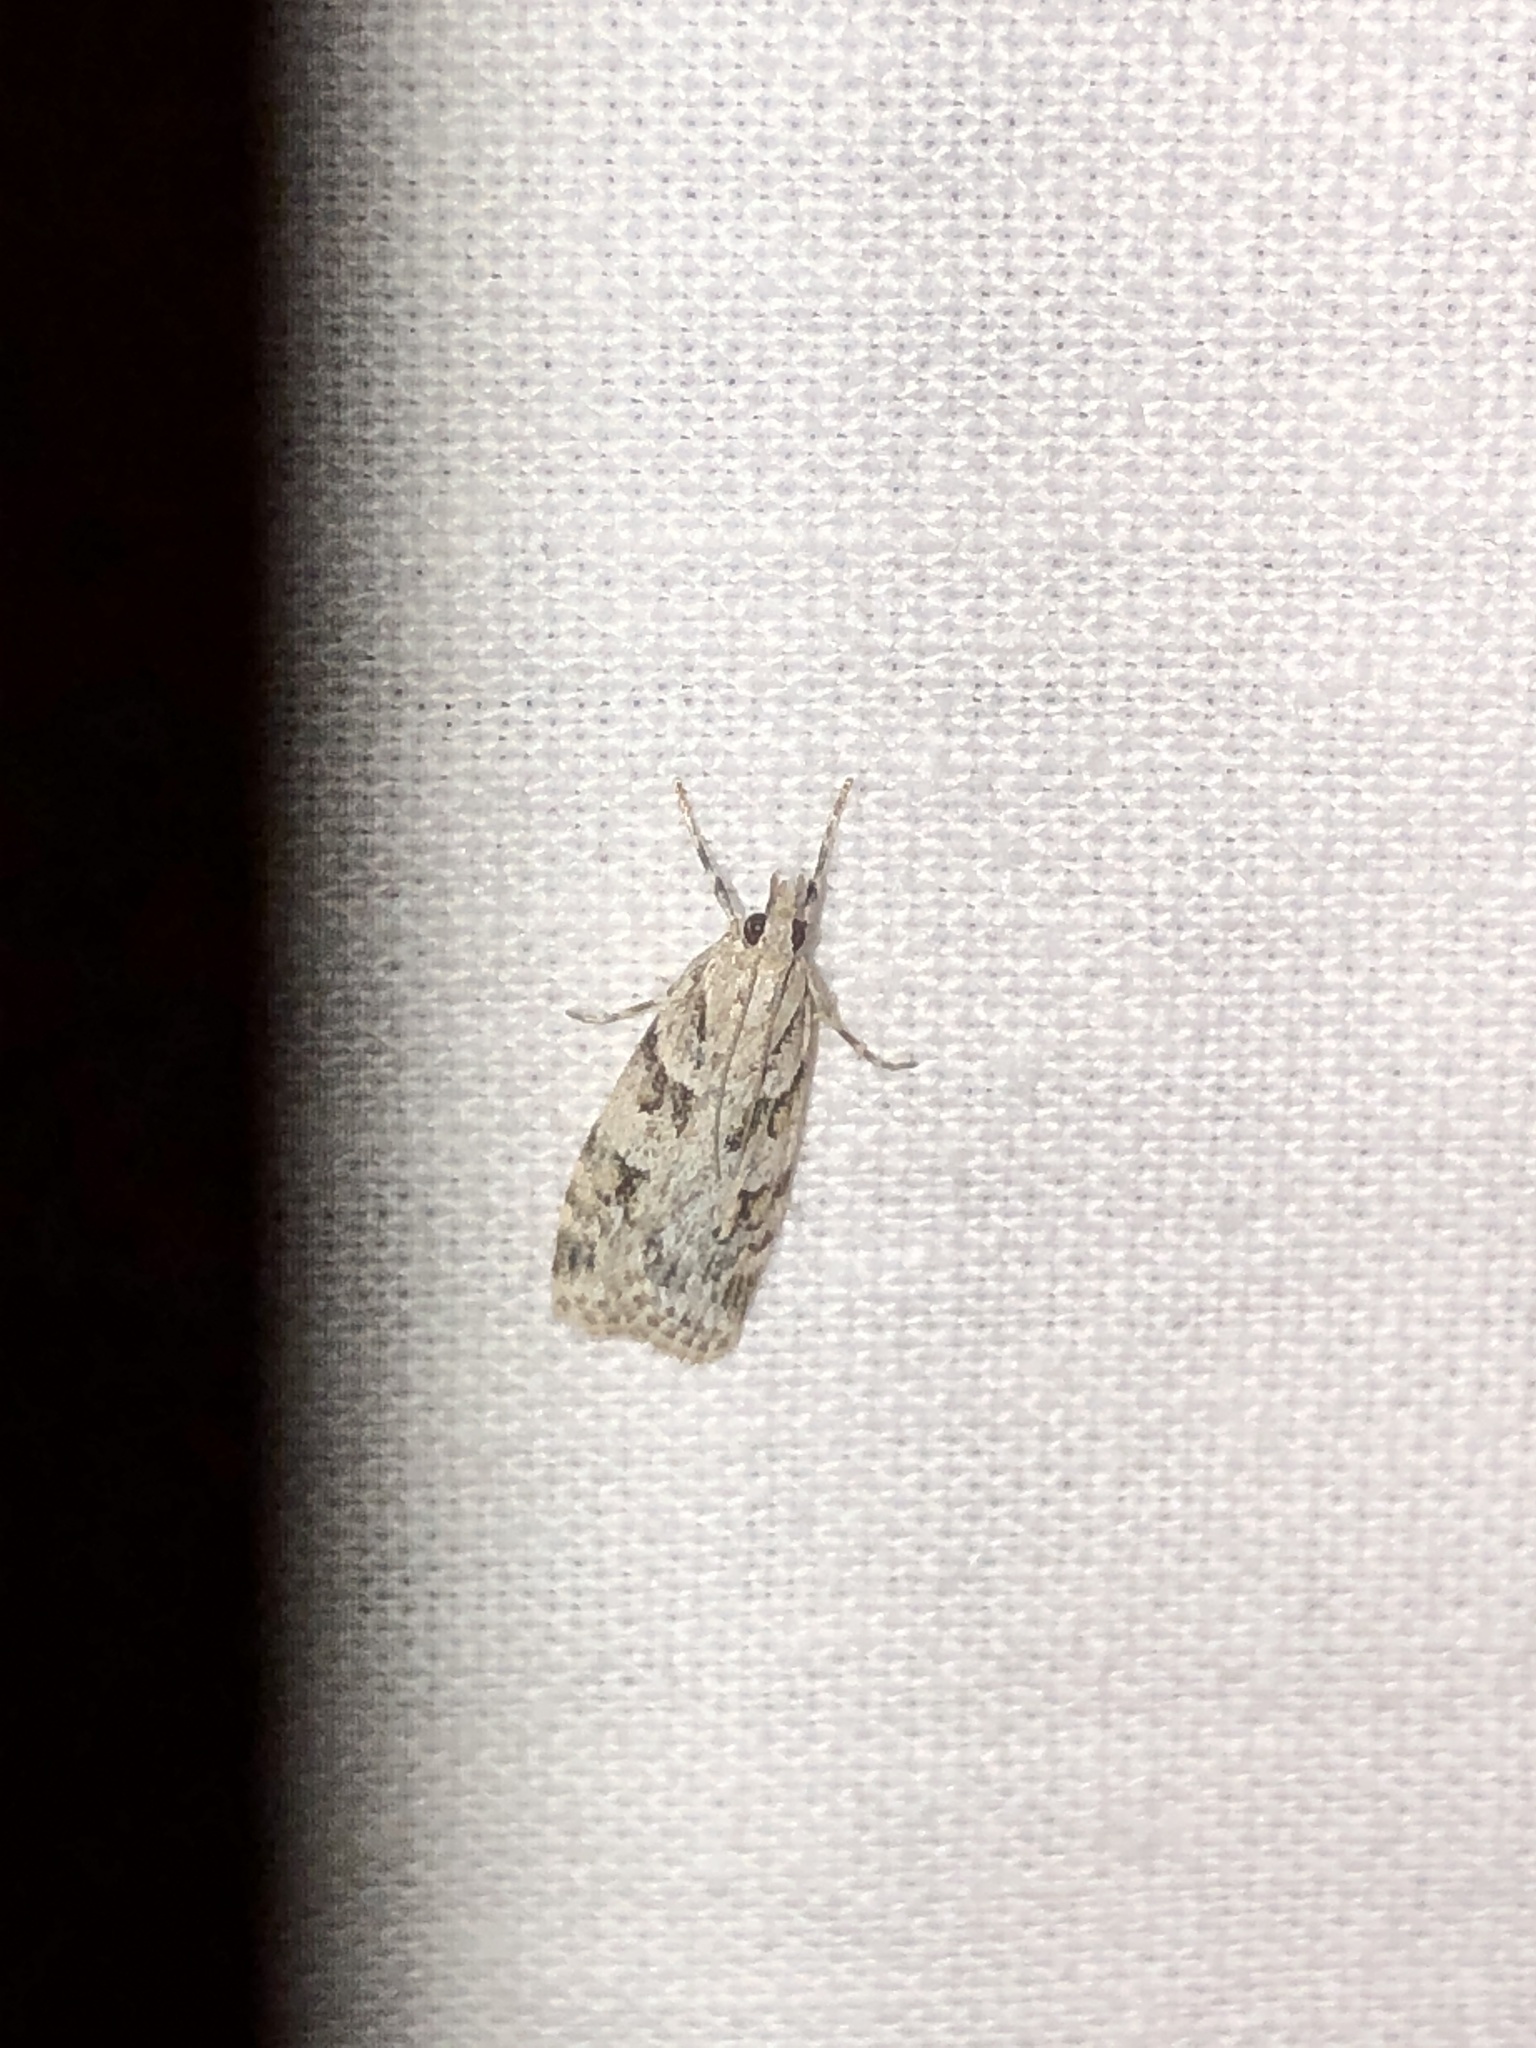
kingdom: Animalia
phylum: Arthropoda
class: Insecta
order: Lepidoptera
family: Crambidae
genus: Scoparia
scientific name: Scoparia biplagialis
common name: Double-striped scoparia moth
